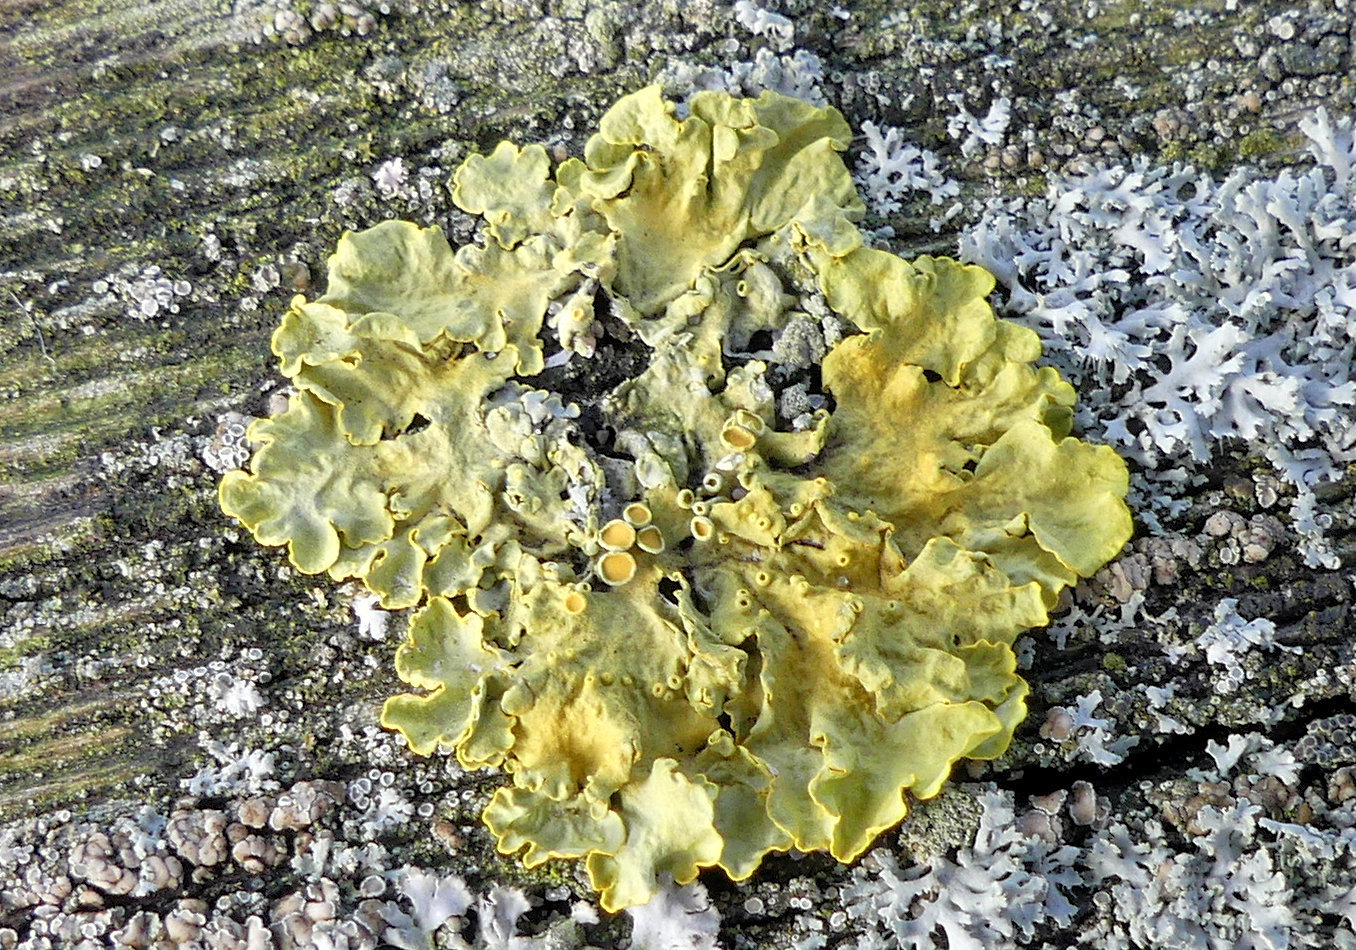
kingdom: Fungi
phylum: Ascomycota
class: Lecanoromycetes
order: Teloschistales
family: Teloschistaceae
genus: Xanthoria
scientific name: Xanthoria parietina
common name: Common orange lichen
